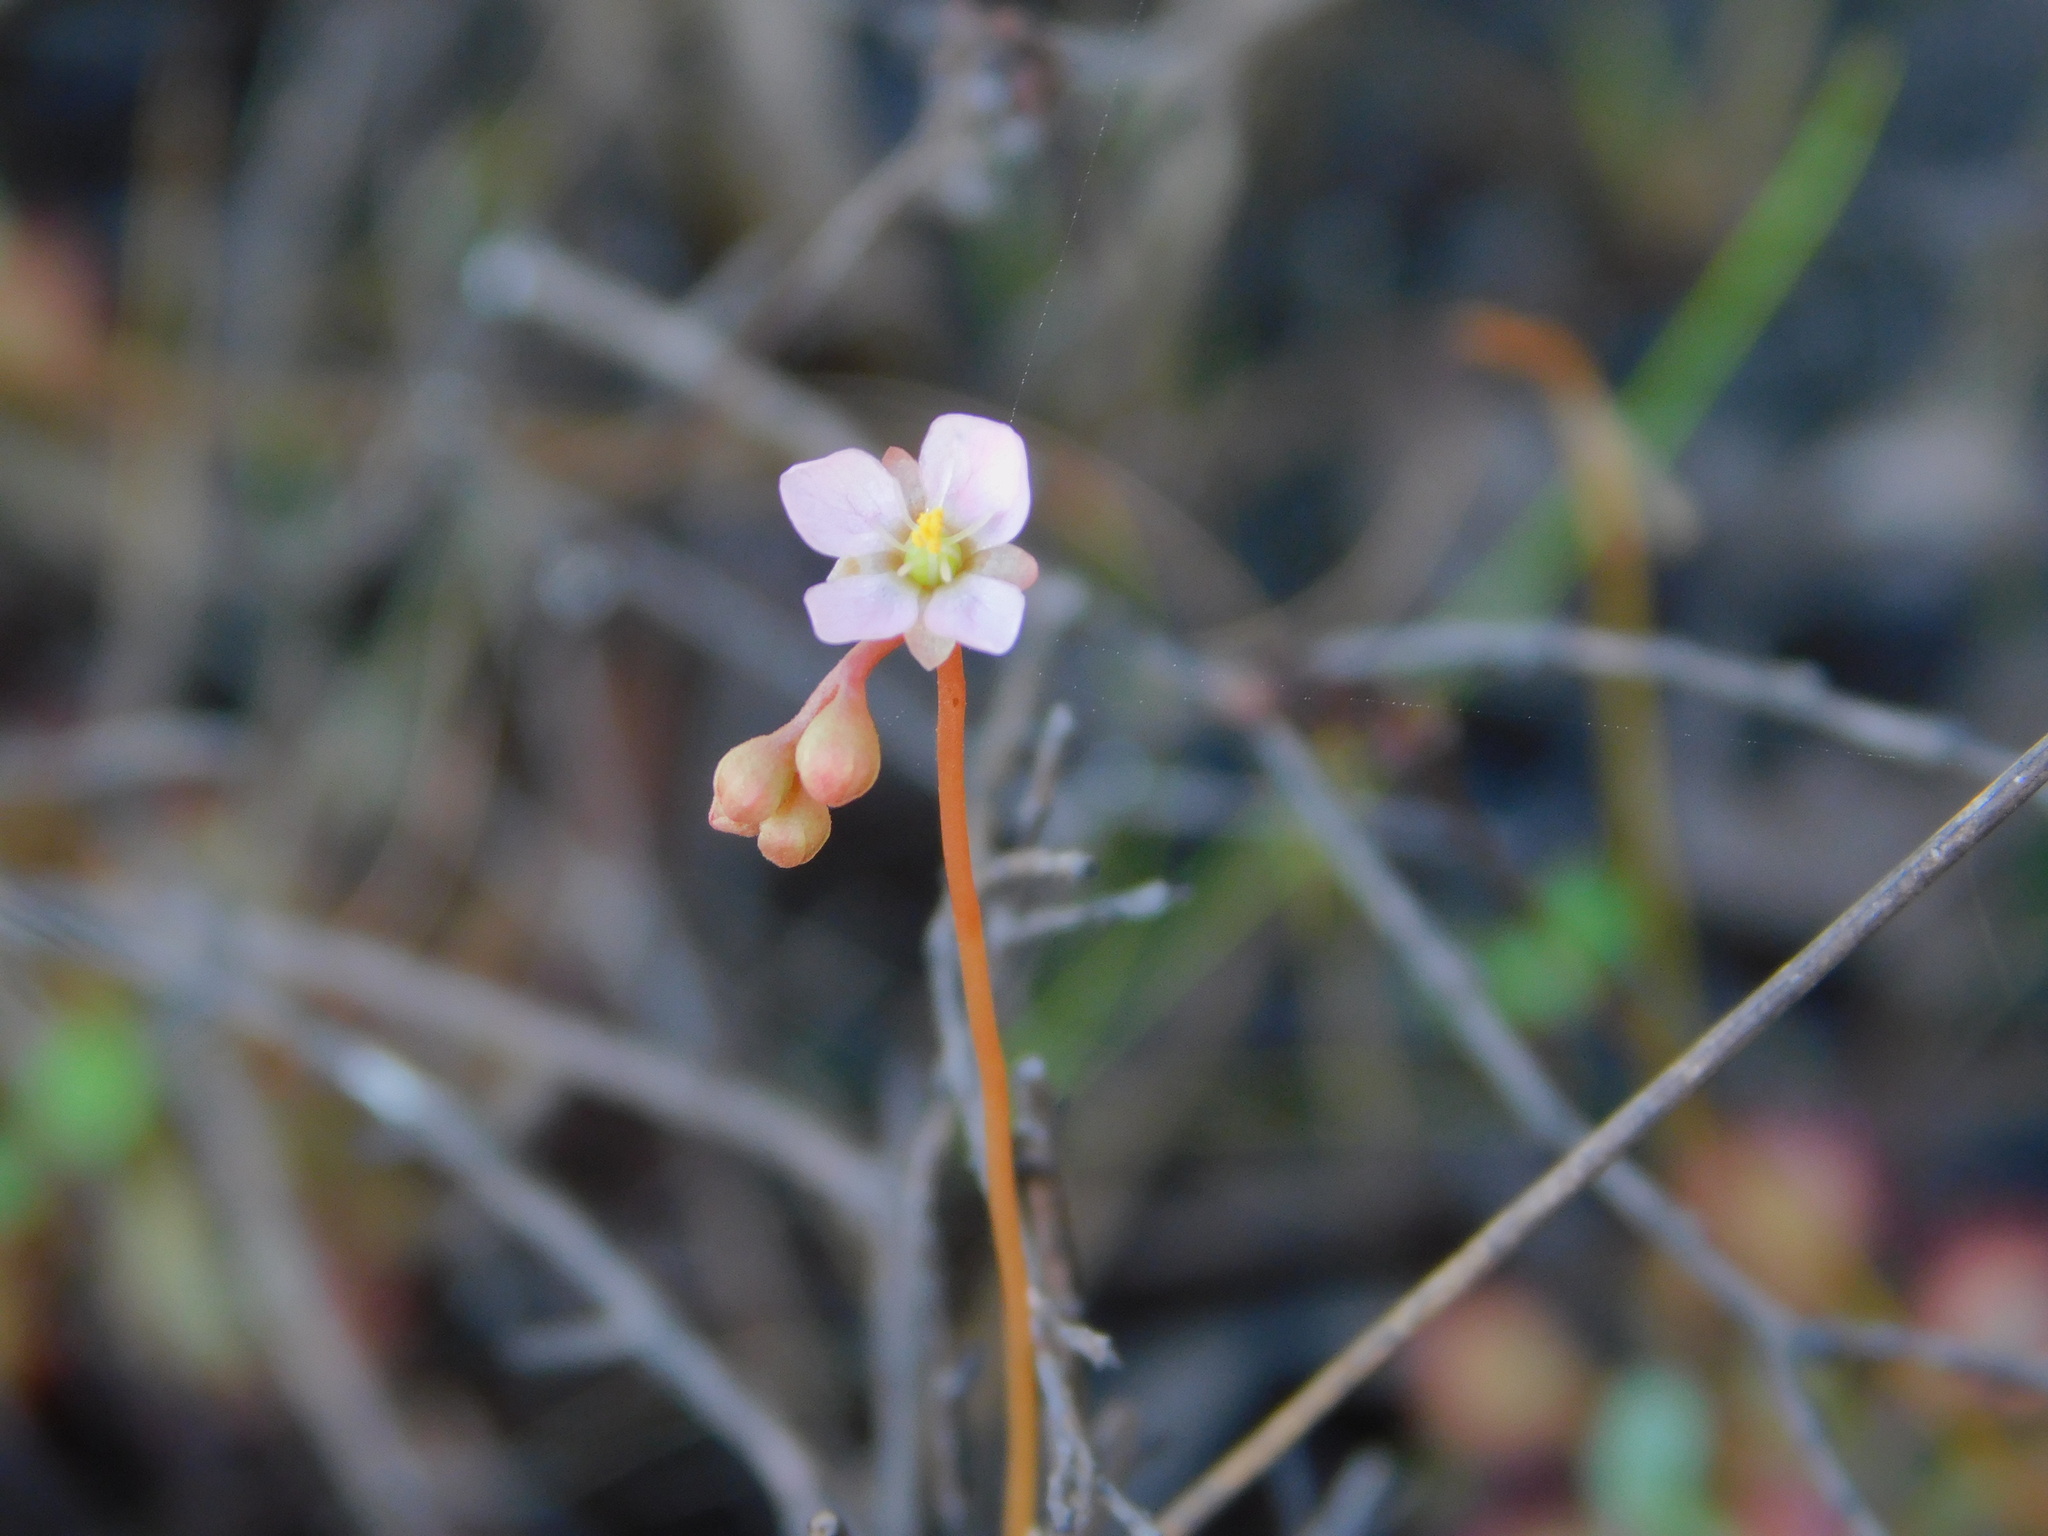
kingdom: Plantae
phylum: Tracheophyta
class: Magnoliopsida
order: Caryophyllales
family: Droseraceae
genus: Drosera
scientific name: Drosera capillaris
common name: Pink sundew
